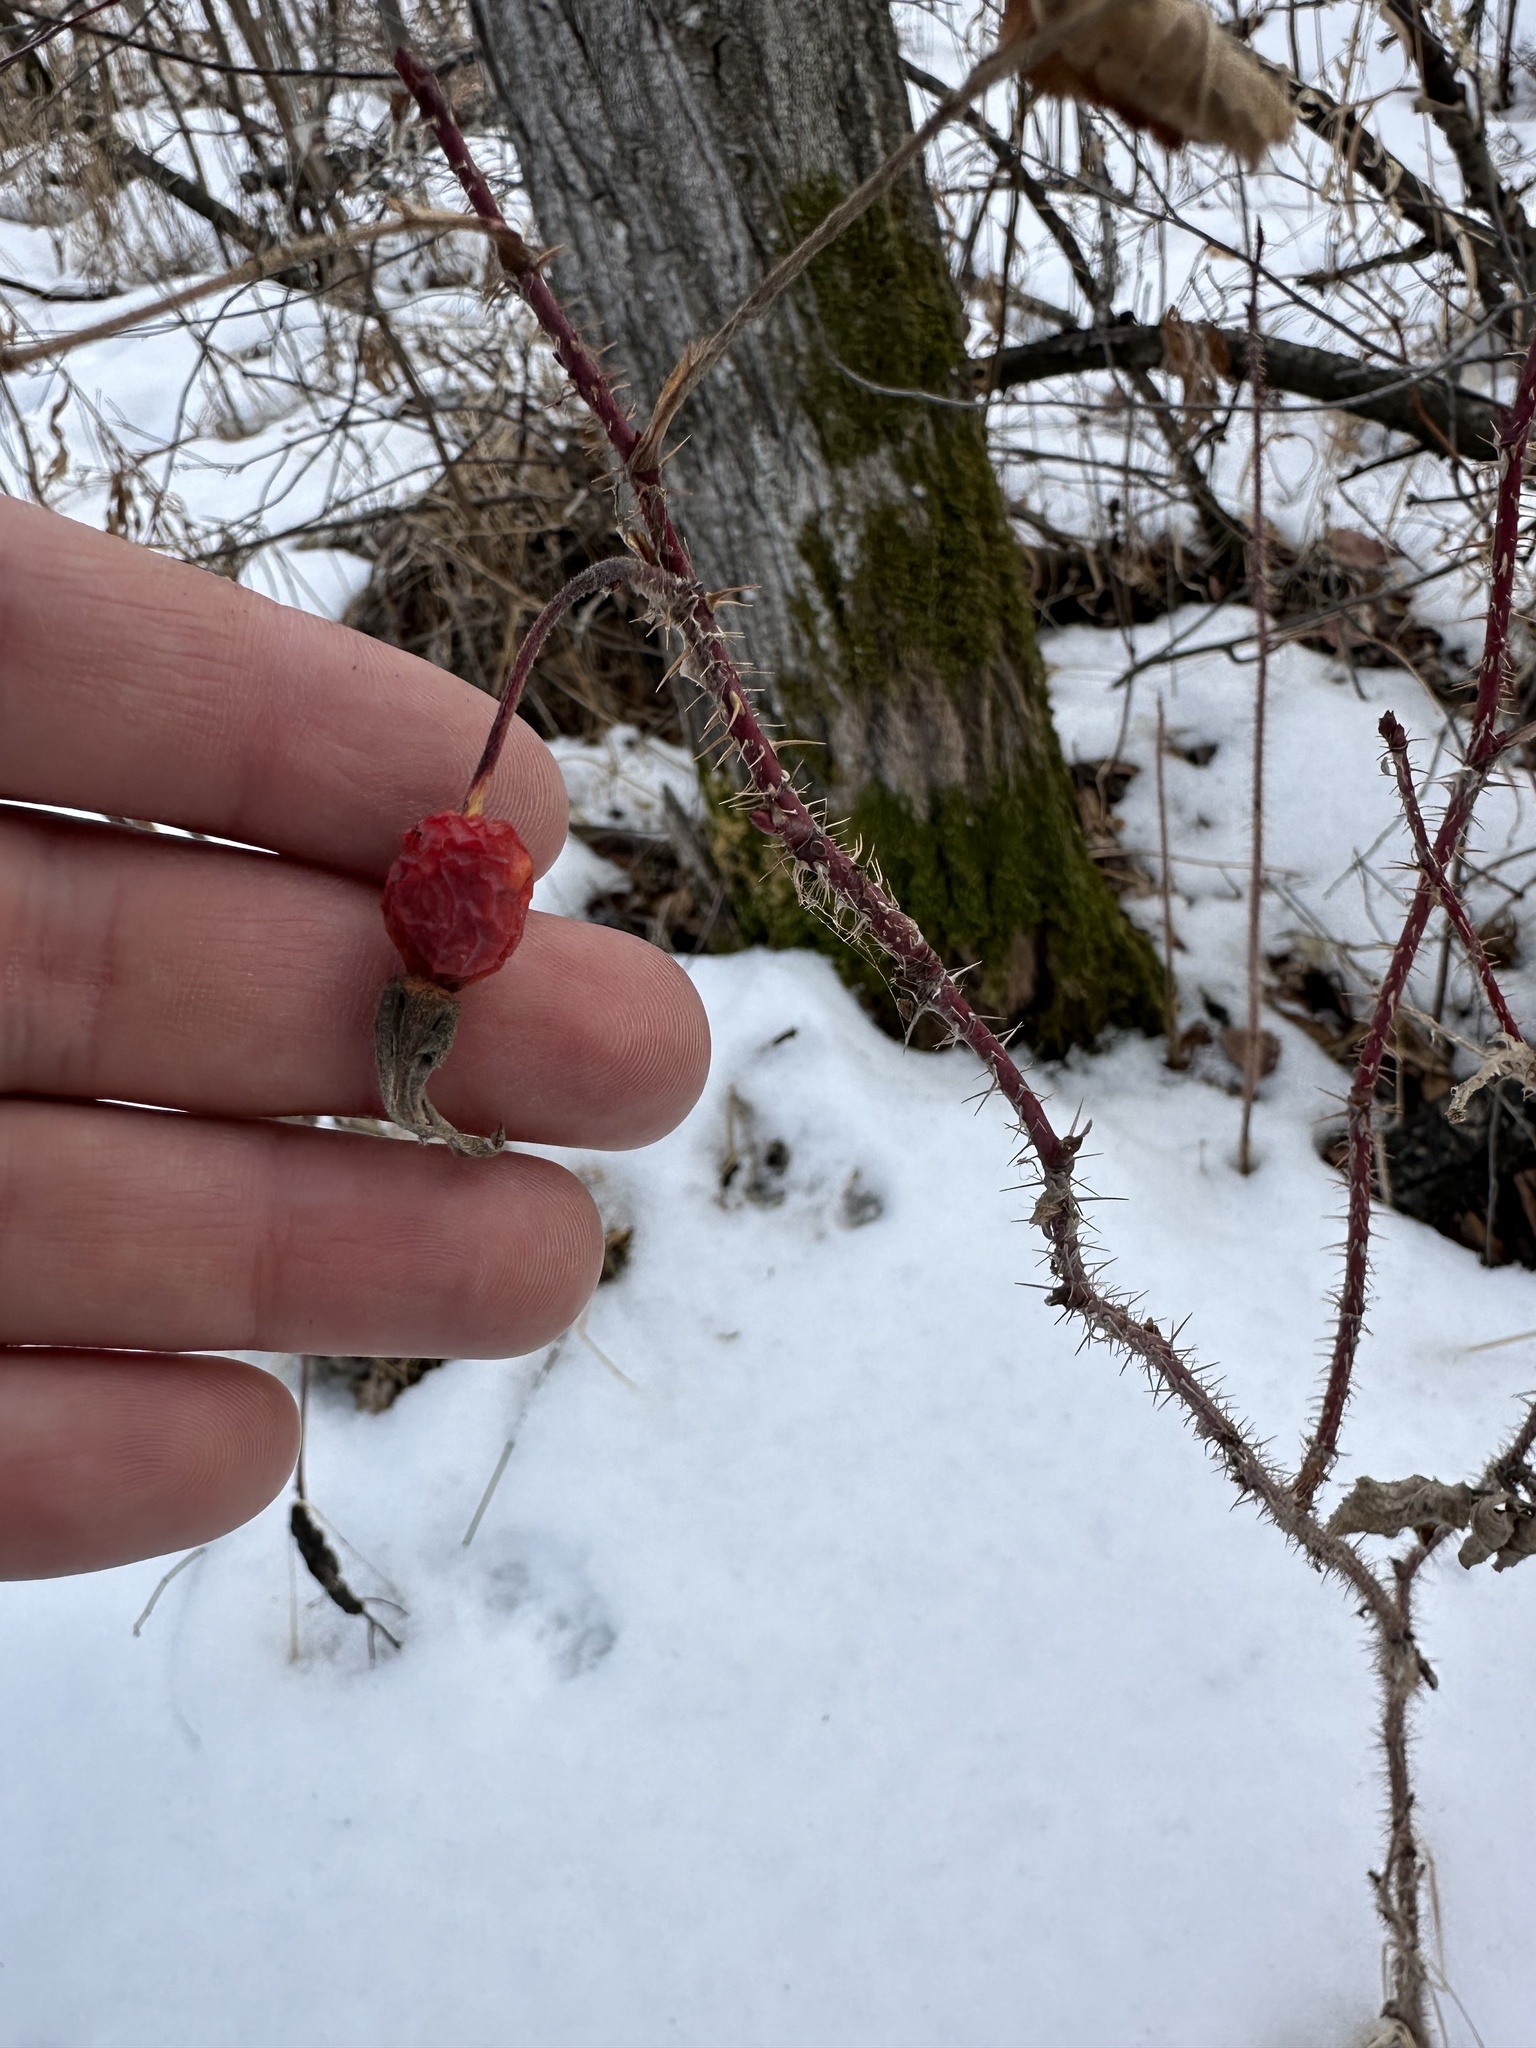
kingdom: Plantae
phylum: Tracheophyta
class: Magnoliopsida
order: Rosales
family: Rosaceae
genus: Rosa
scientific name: Rosa acicularis
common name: Prickly rose
